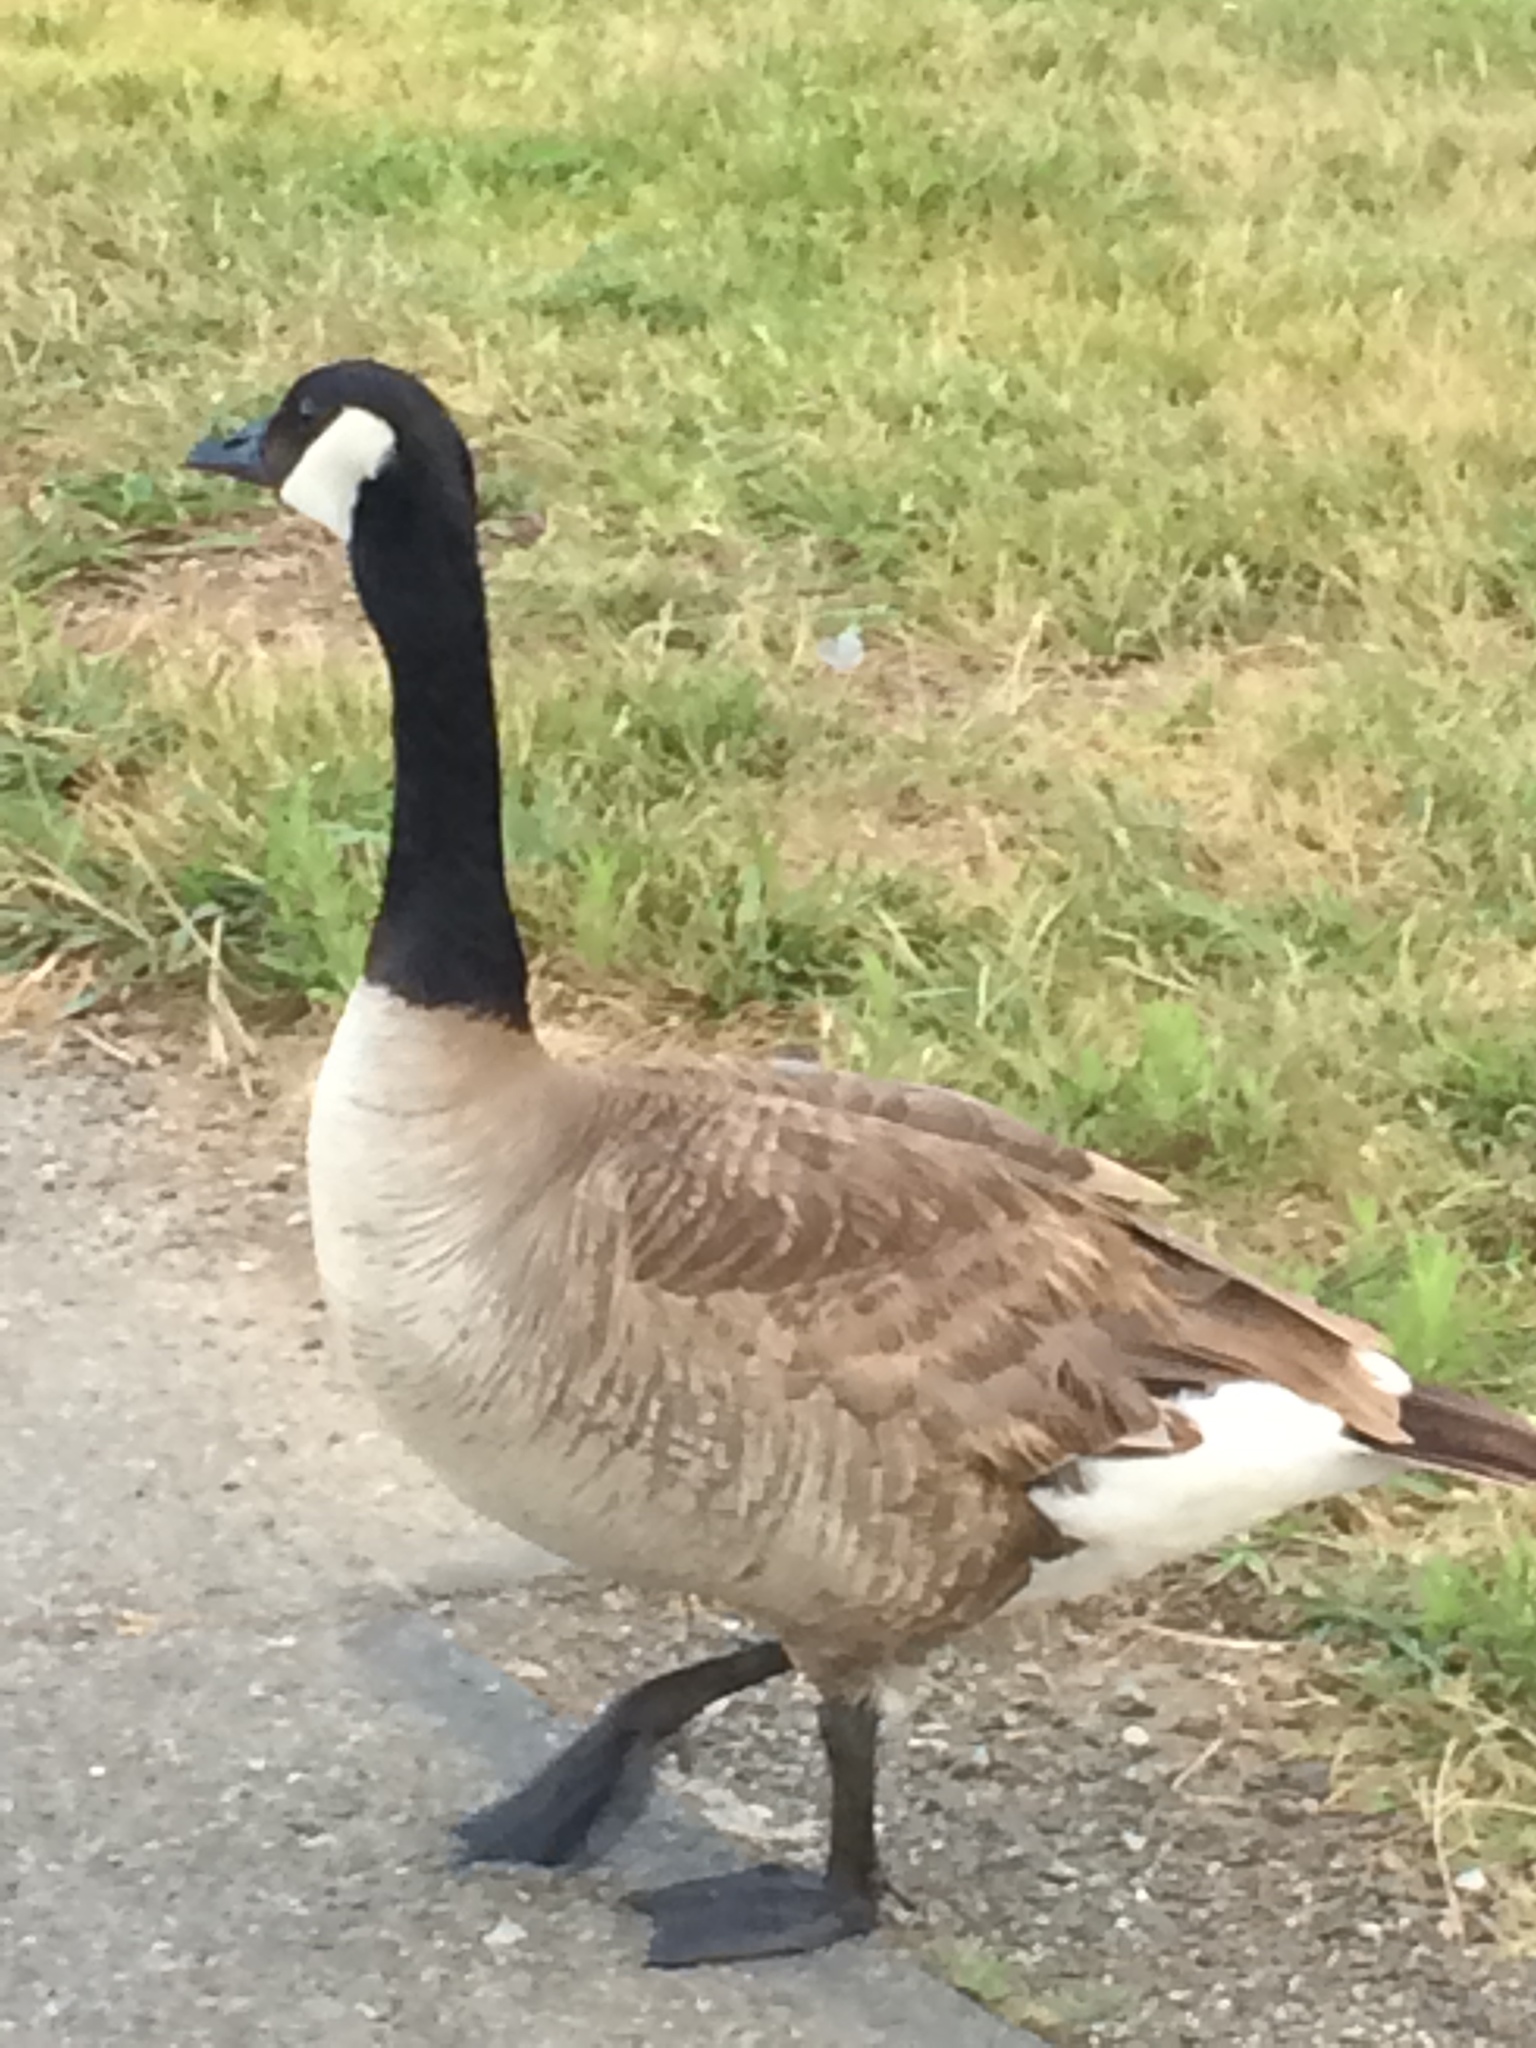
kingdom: Animalia
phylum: Chordata
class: Aves
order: Anseriformes
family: Anatidae
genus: Branta
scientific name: Branta canadensis
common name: Canada goose
